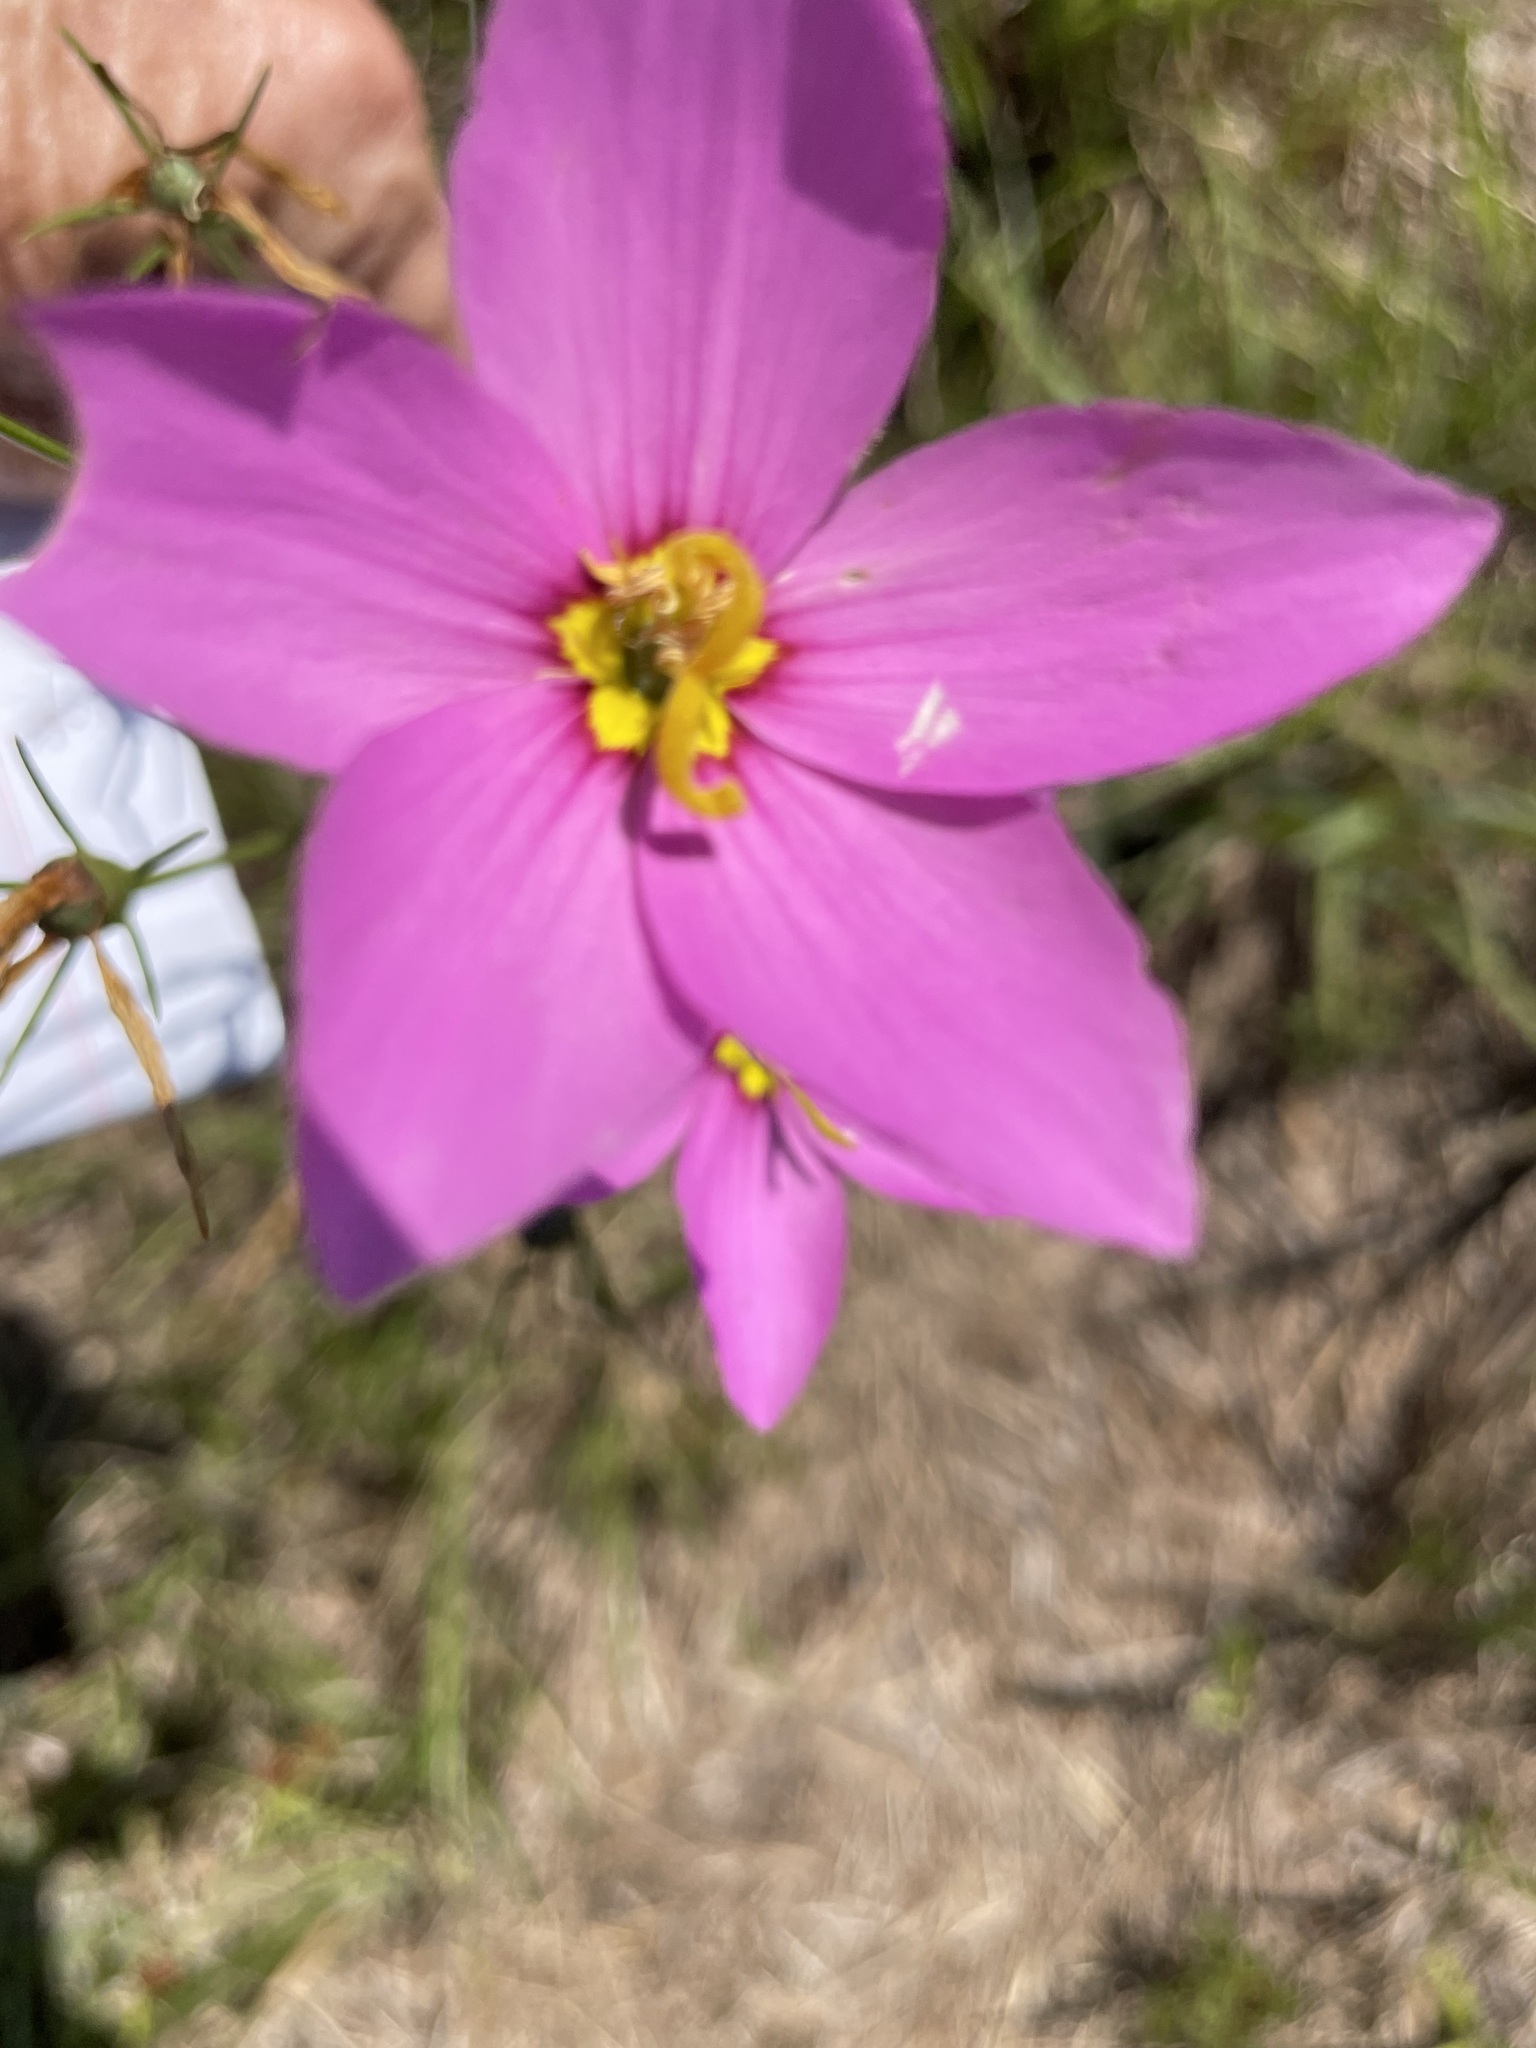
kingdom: Plantae
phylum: Tracheophyta
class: Magnoliopsida
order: Gentianales
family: Gentianaceae
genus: Sabatia
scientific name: Sabatia grandiflora
